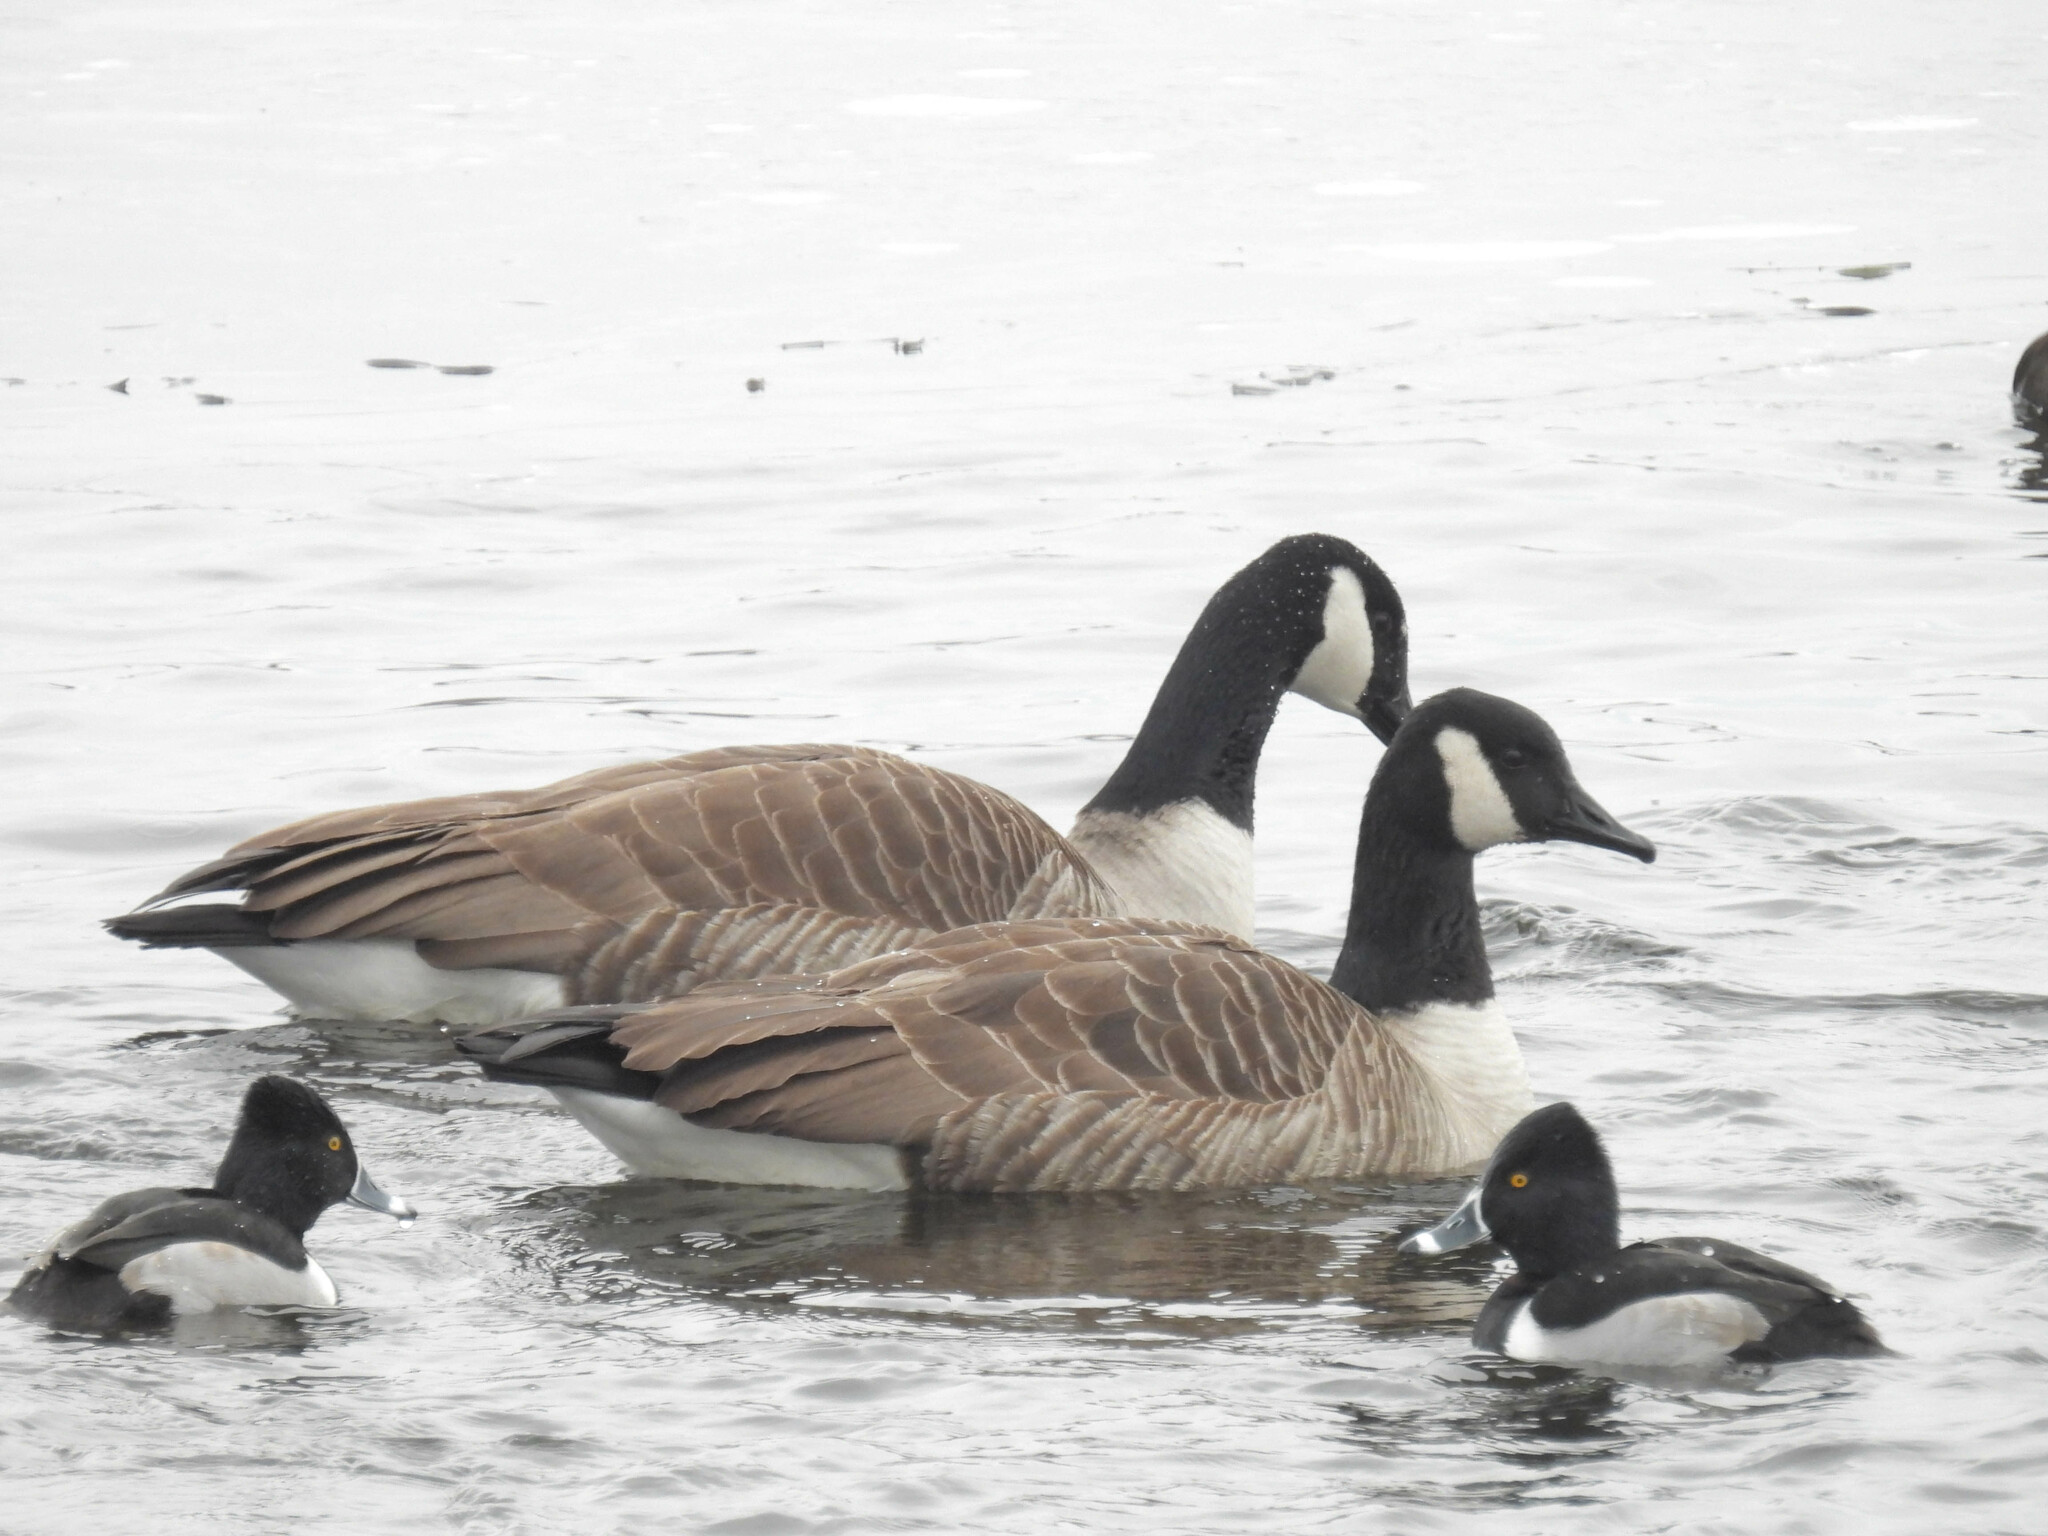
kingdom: Animalia
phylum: Chordata
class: Aves
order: Anseriformes
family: Anatidae
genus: Branta
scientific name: Branta canadensis
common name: Canada goose
